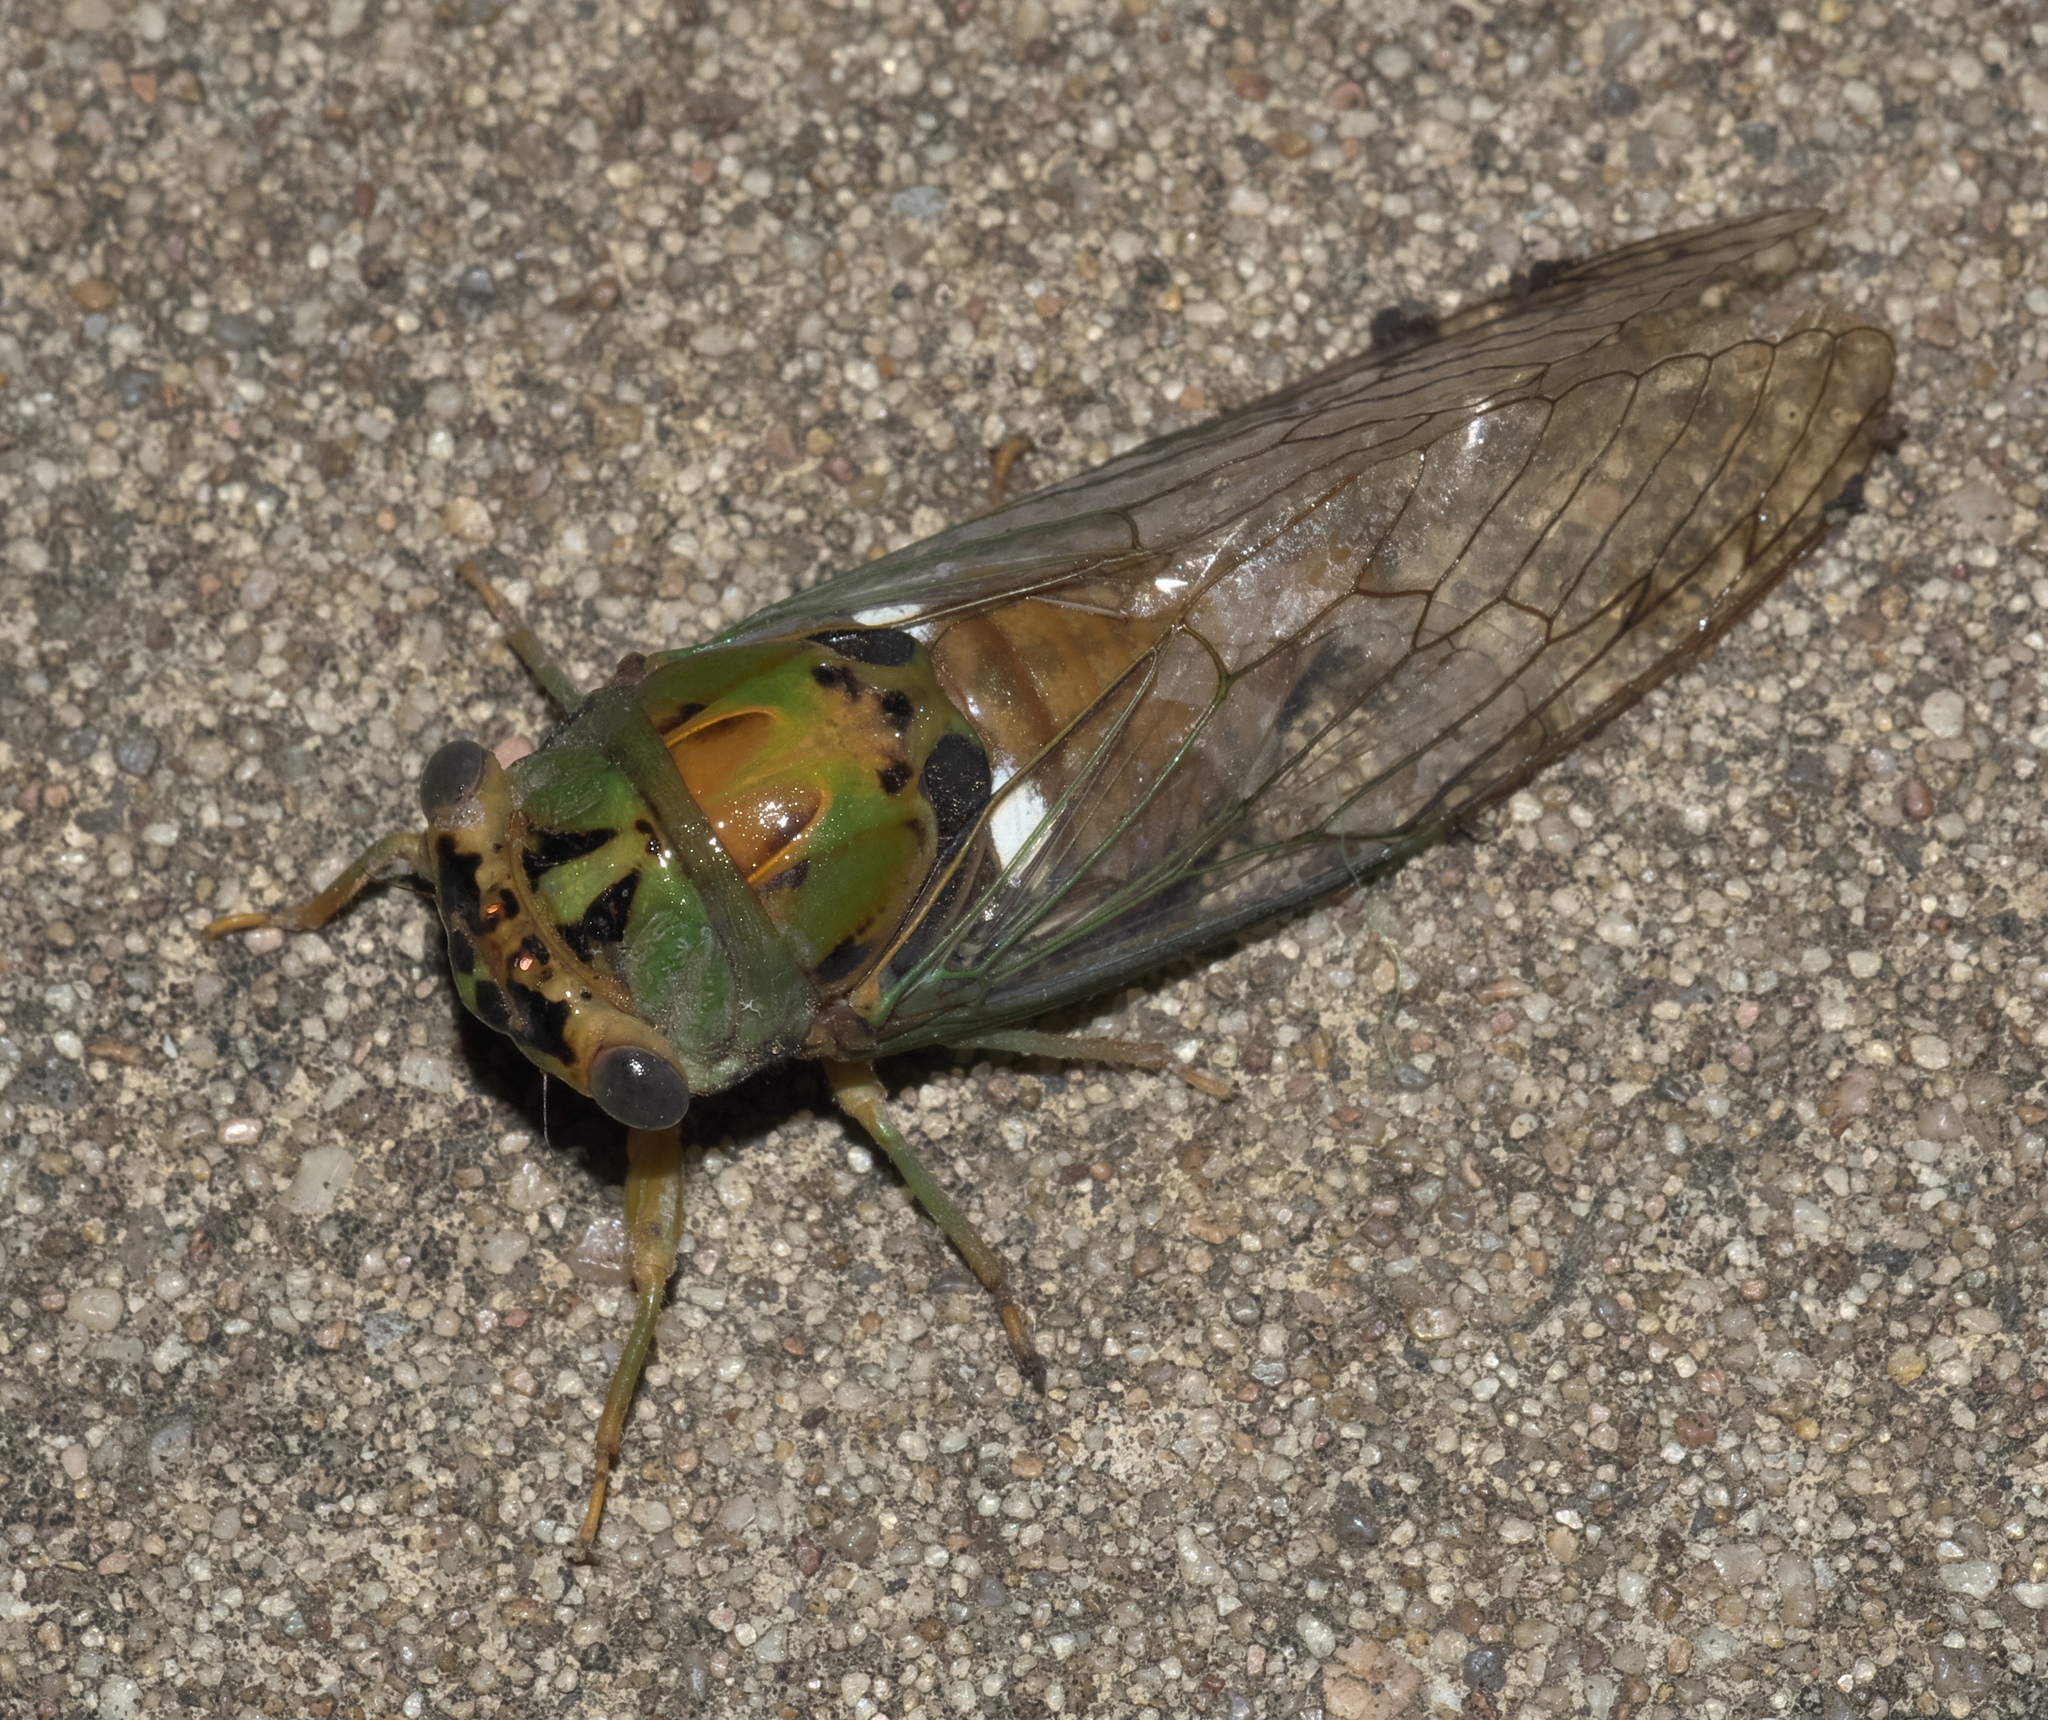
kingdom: Animalia
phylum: Arthropoda
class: Insecta
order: Hemiptera
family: Cicadidae
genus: Neotibicen
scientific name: Neotibicen pruinosus
